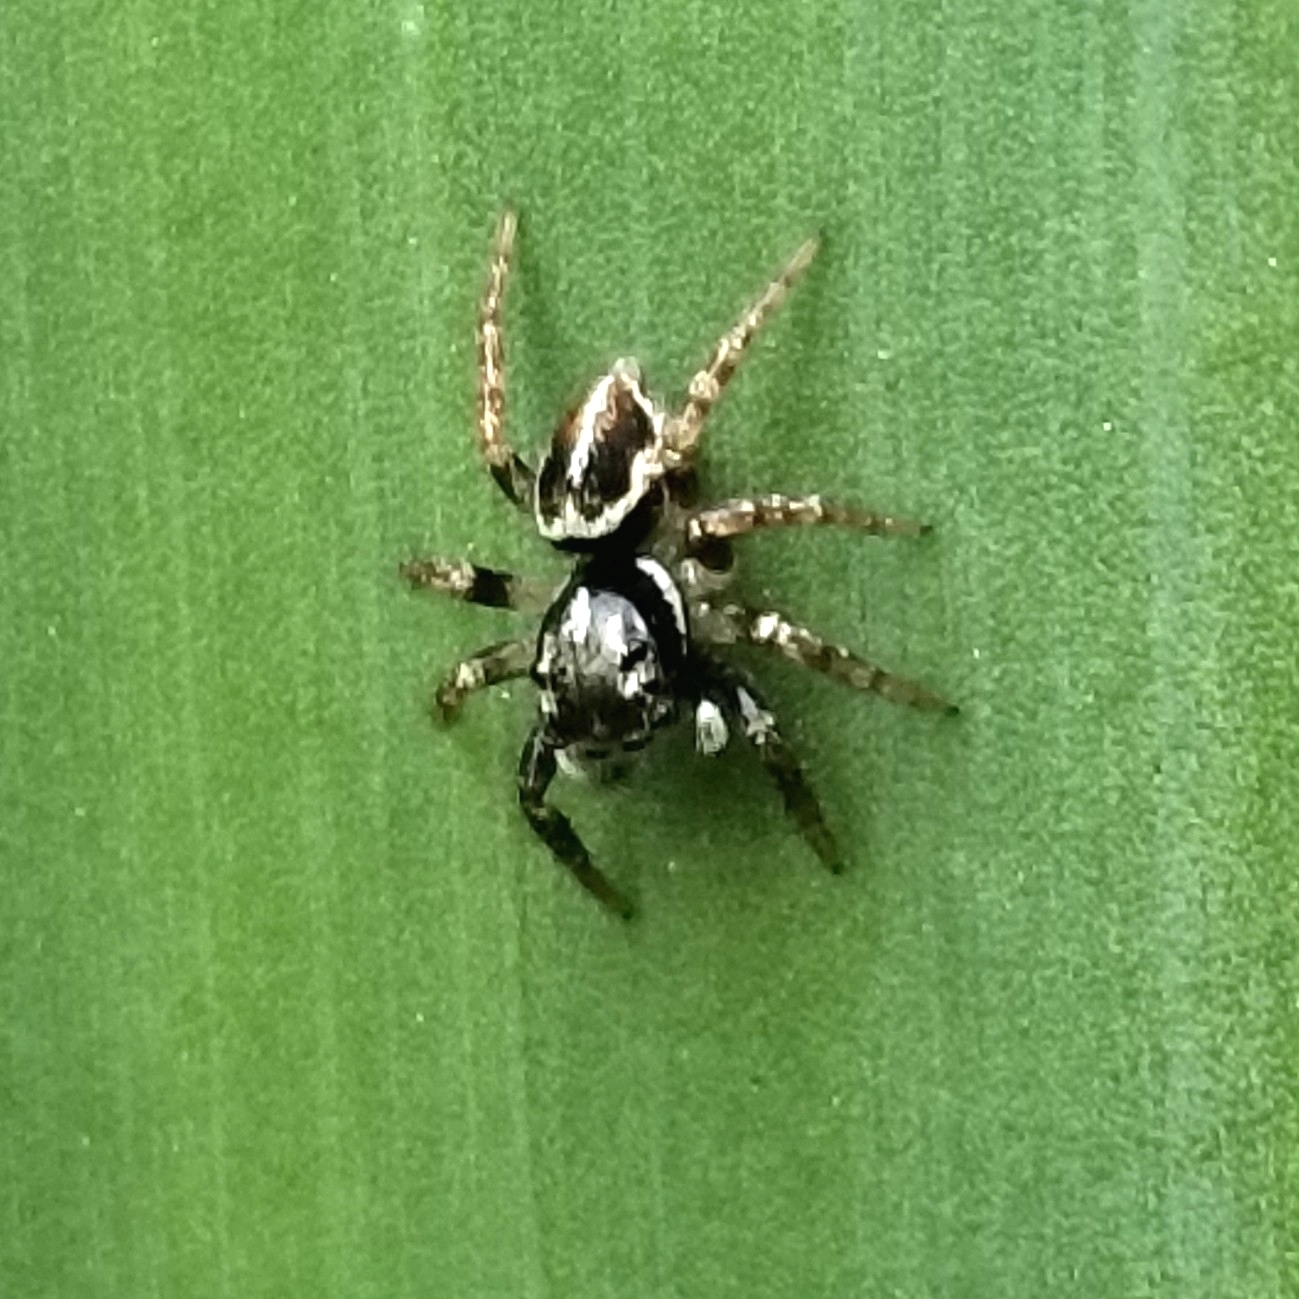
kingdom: Animalia
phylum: Arthropoda
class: Arachnida
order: Araneae
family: Salticidae
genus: Anasaitis
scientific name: Anasaitis canosa
